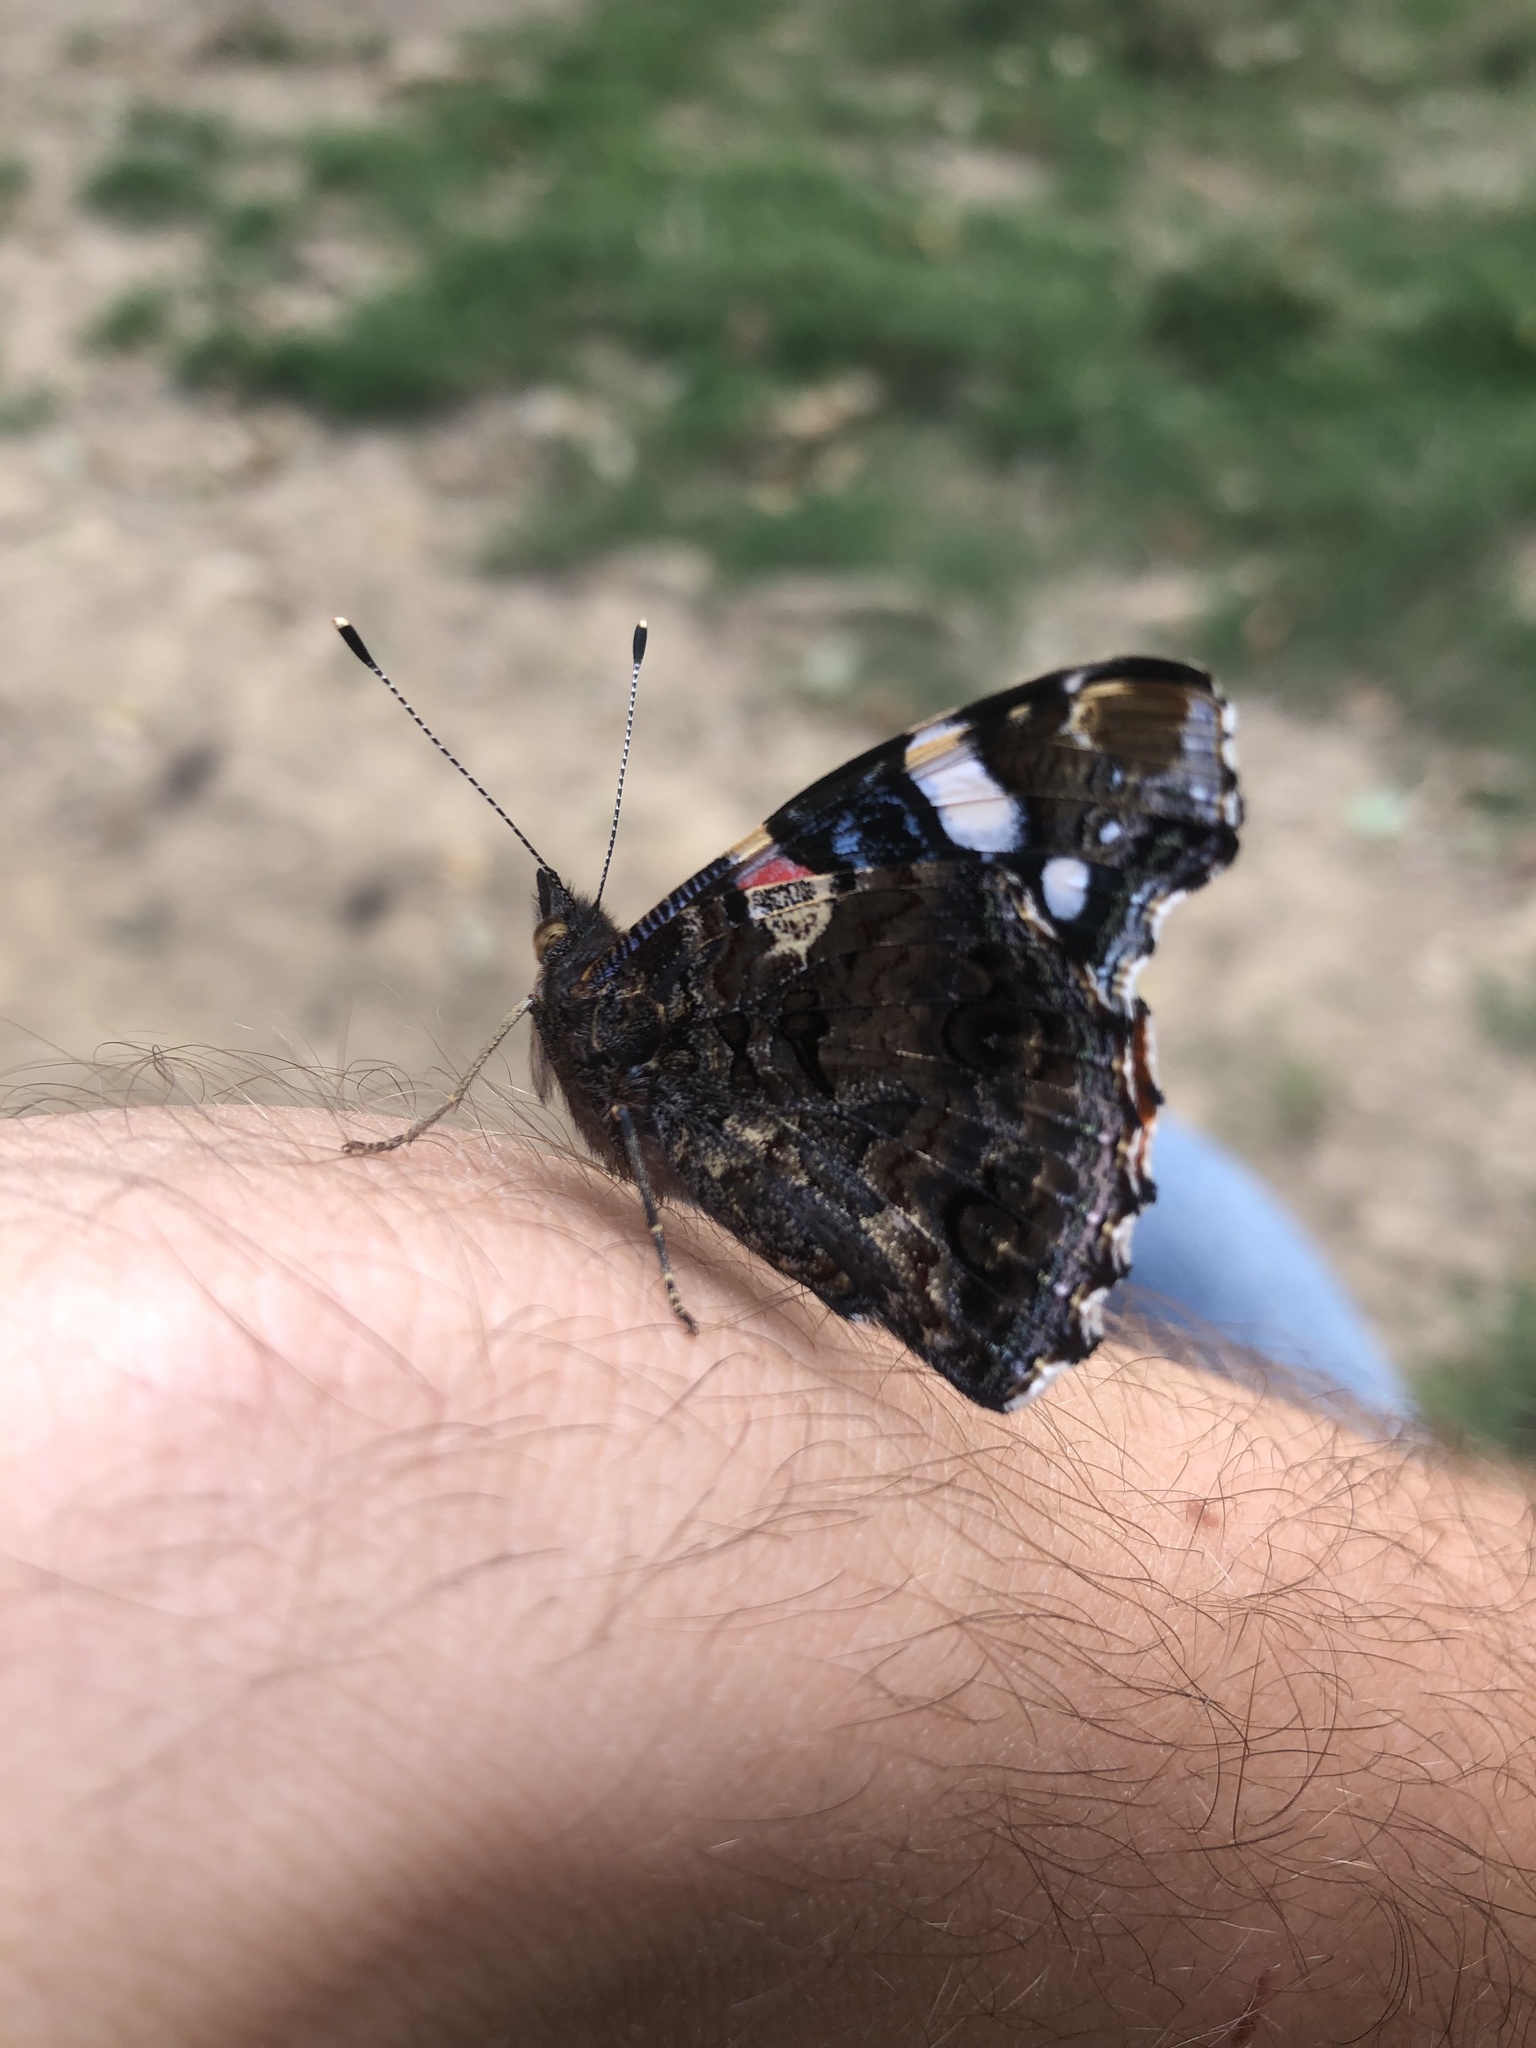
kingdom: Animalia
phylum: Arthropoda
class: Insecta
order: Lepidoptera
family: Nymphalidae
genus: Vanessa
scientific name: Vanessa atalanta
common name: Red admiral
